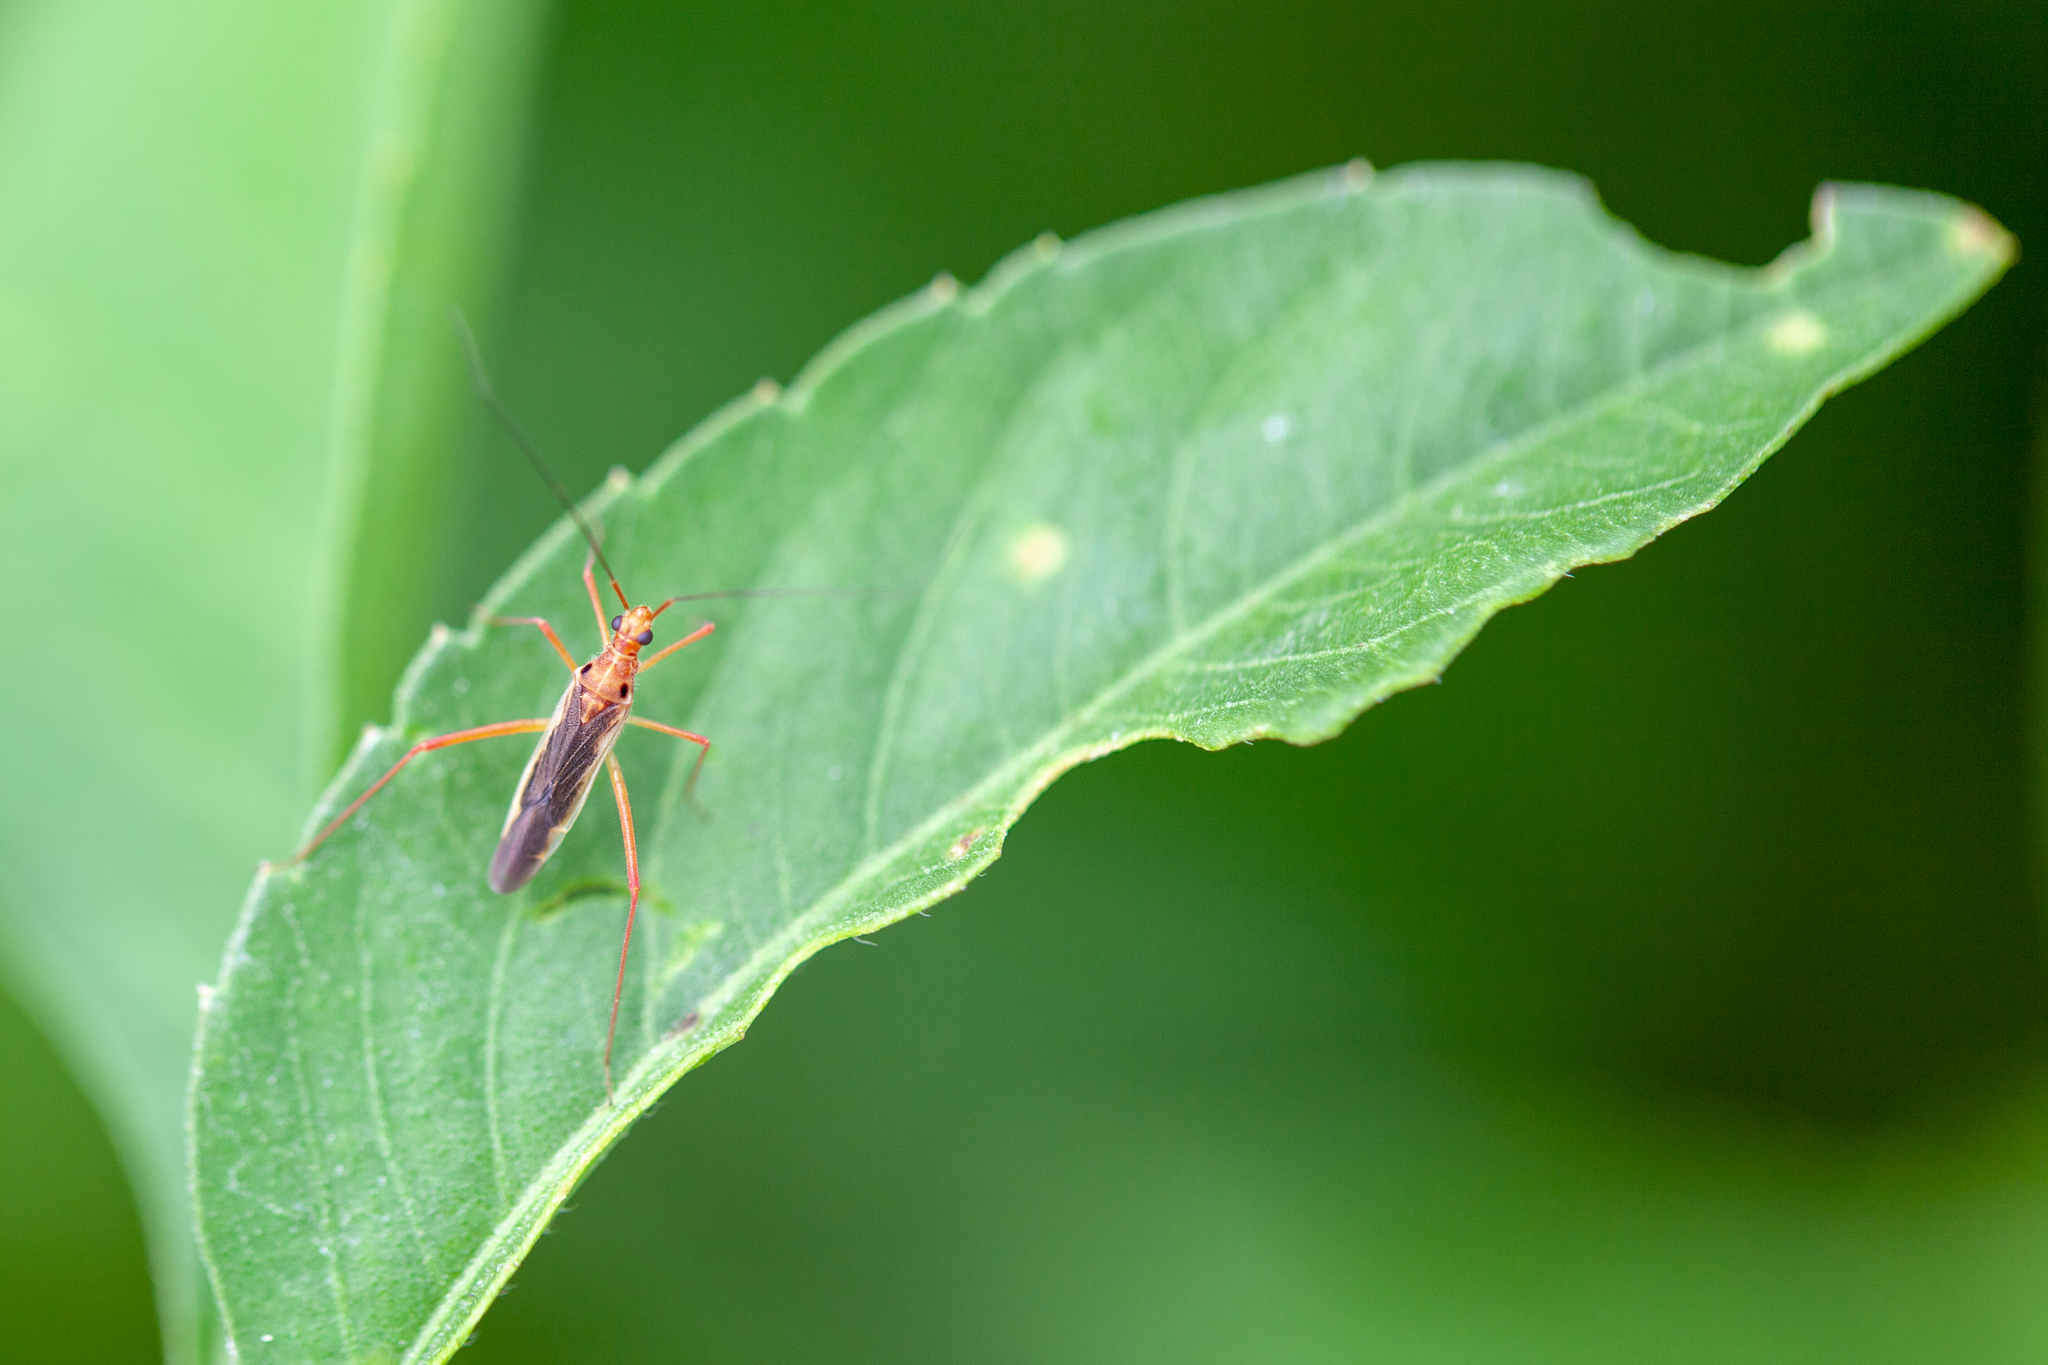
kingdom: Animalia
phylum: Arthropoda
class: Insecta
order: Hemiptera
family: Miridae
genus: Collaria
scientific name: Collaria oleosa
